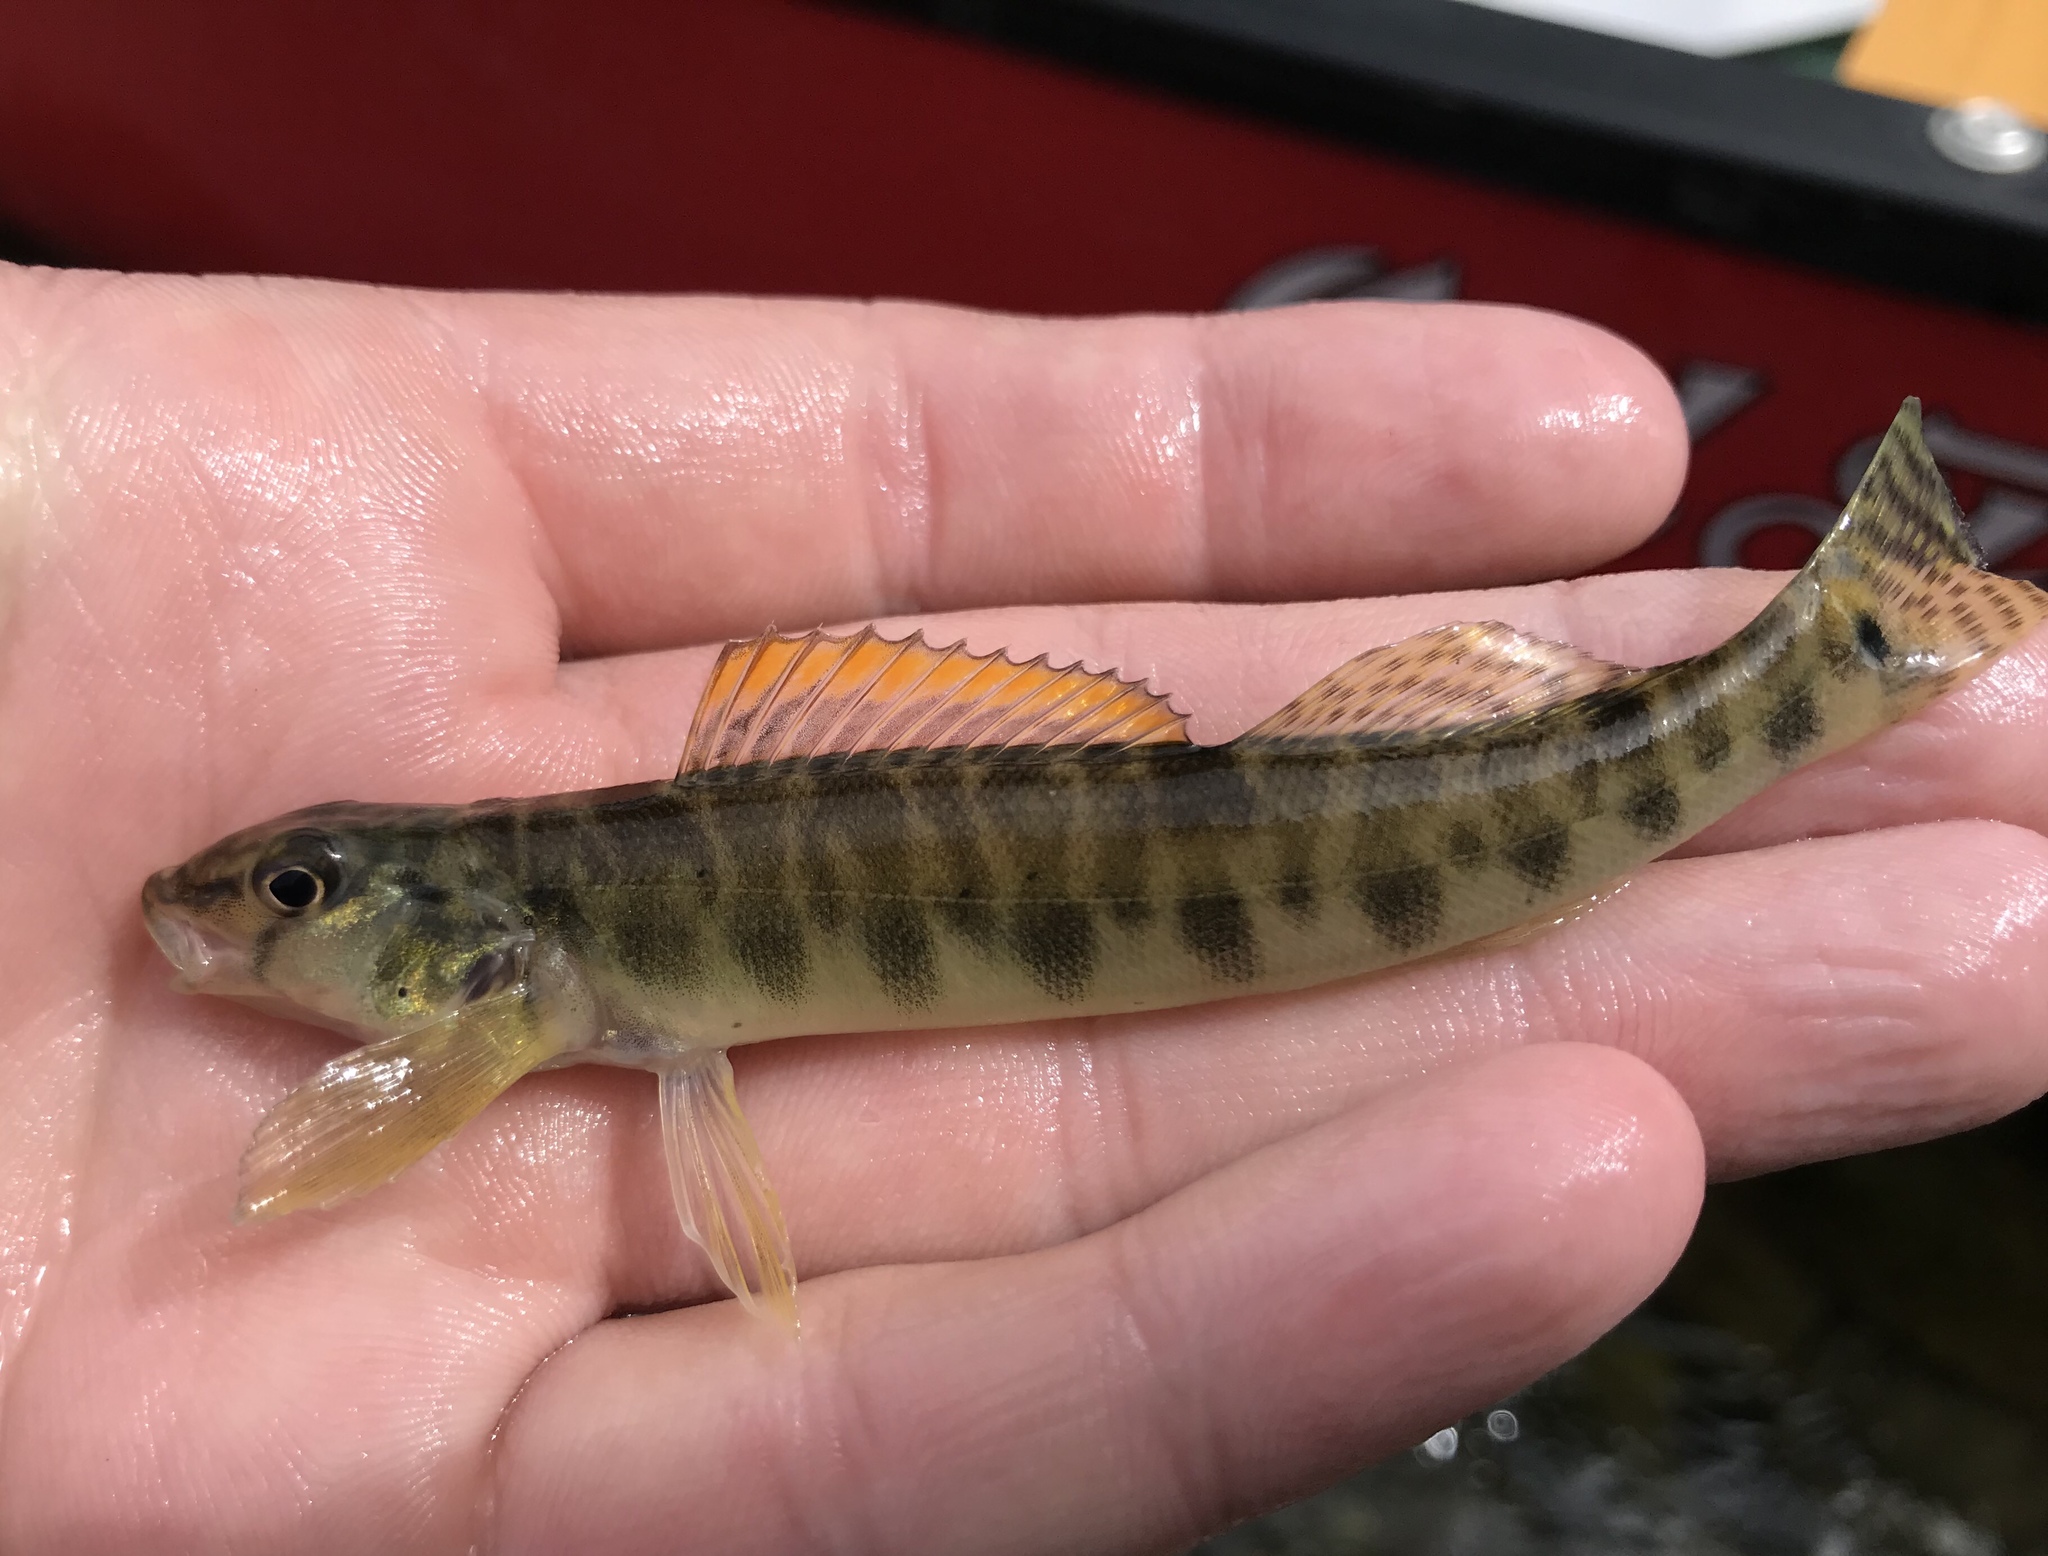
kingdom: Animalia
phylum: Chordata
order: Perciformes
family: Percidae
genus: Percina
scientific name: Percina carbonaria
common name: Texas logperch
